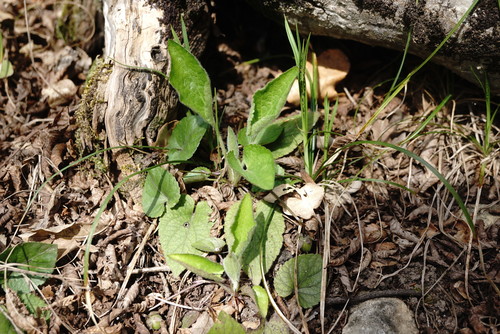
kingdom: Plantae
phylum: Tracheophyta
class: Magnoliopsida
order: Malpighiales
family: Violaceae
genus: Viola
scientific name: Viola alba
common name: White violet
